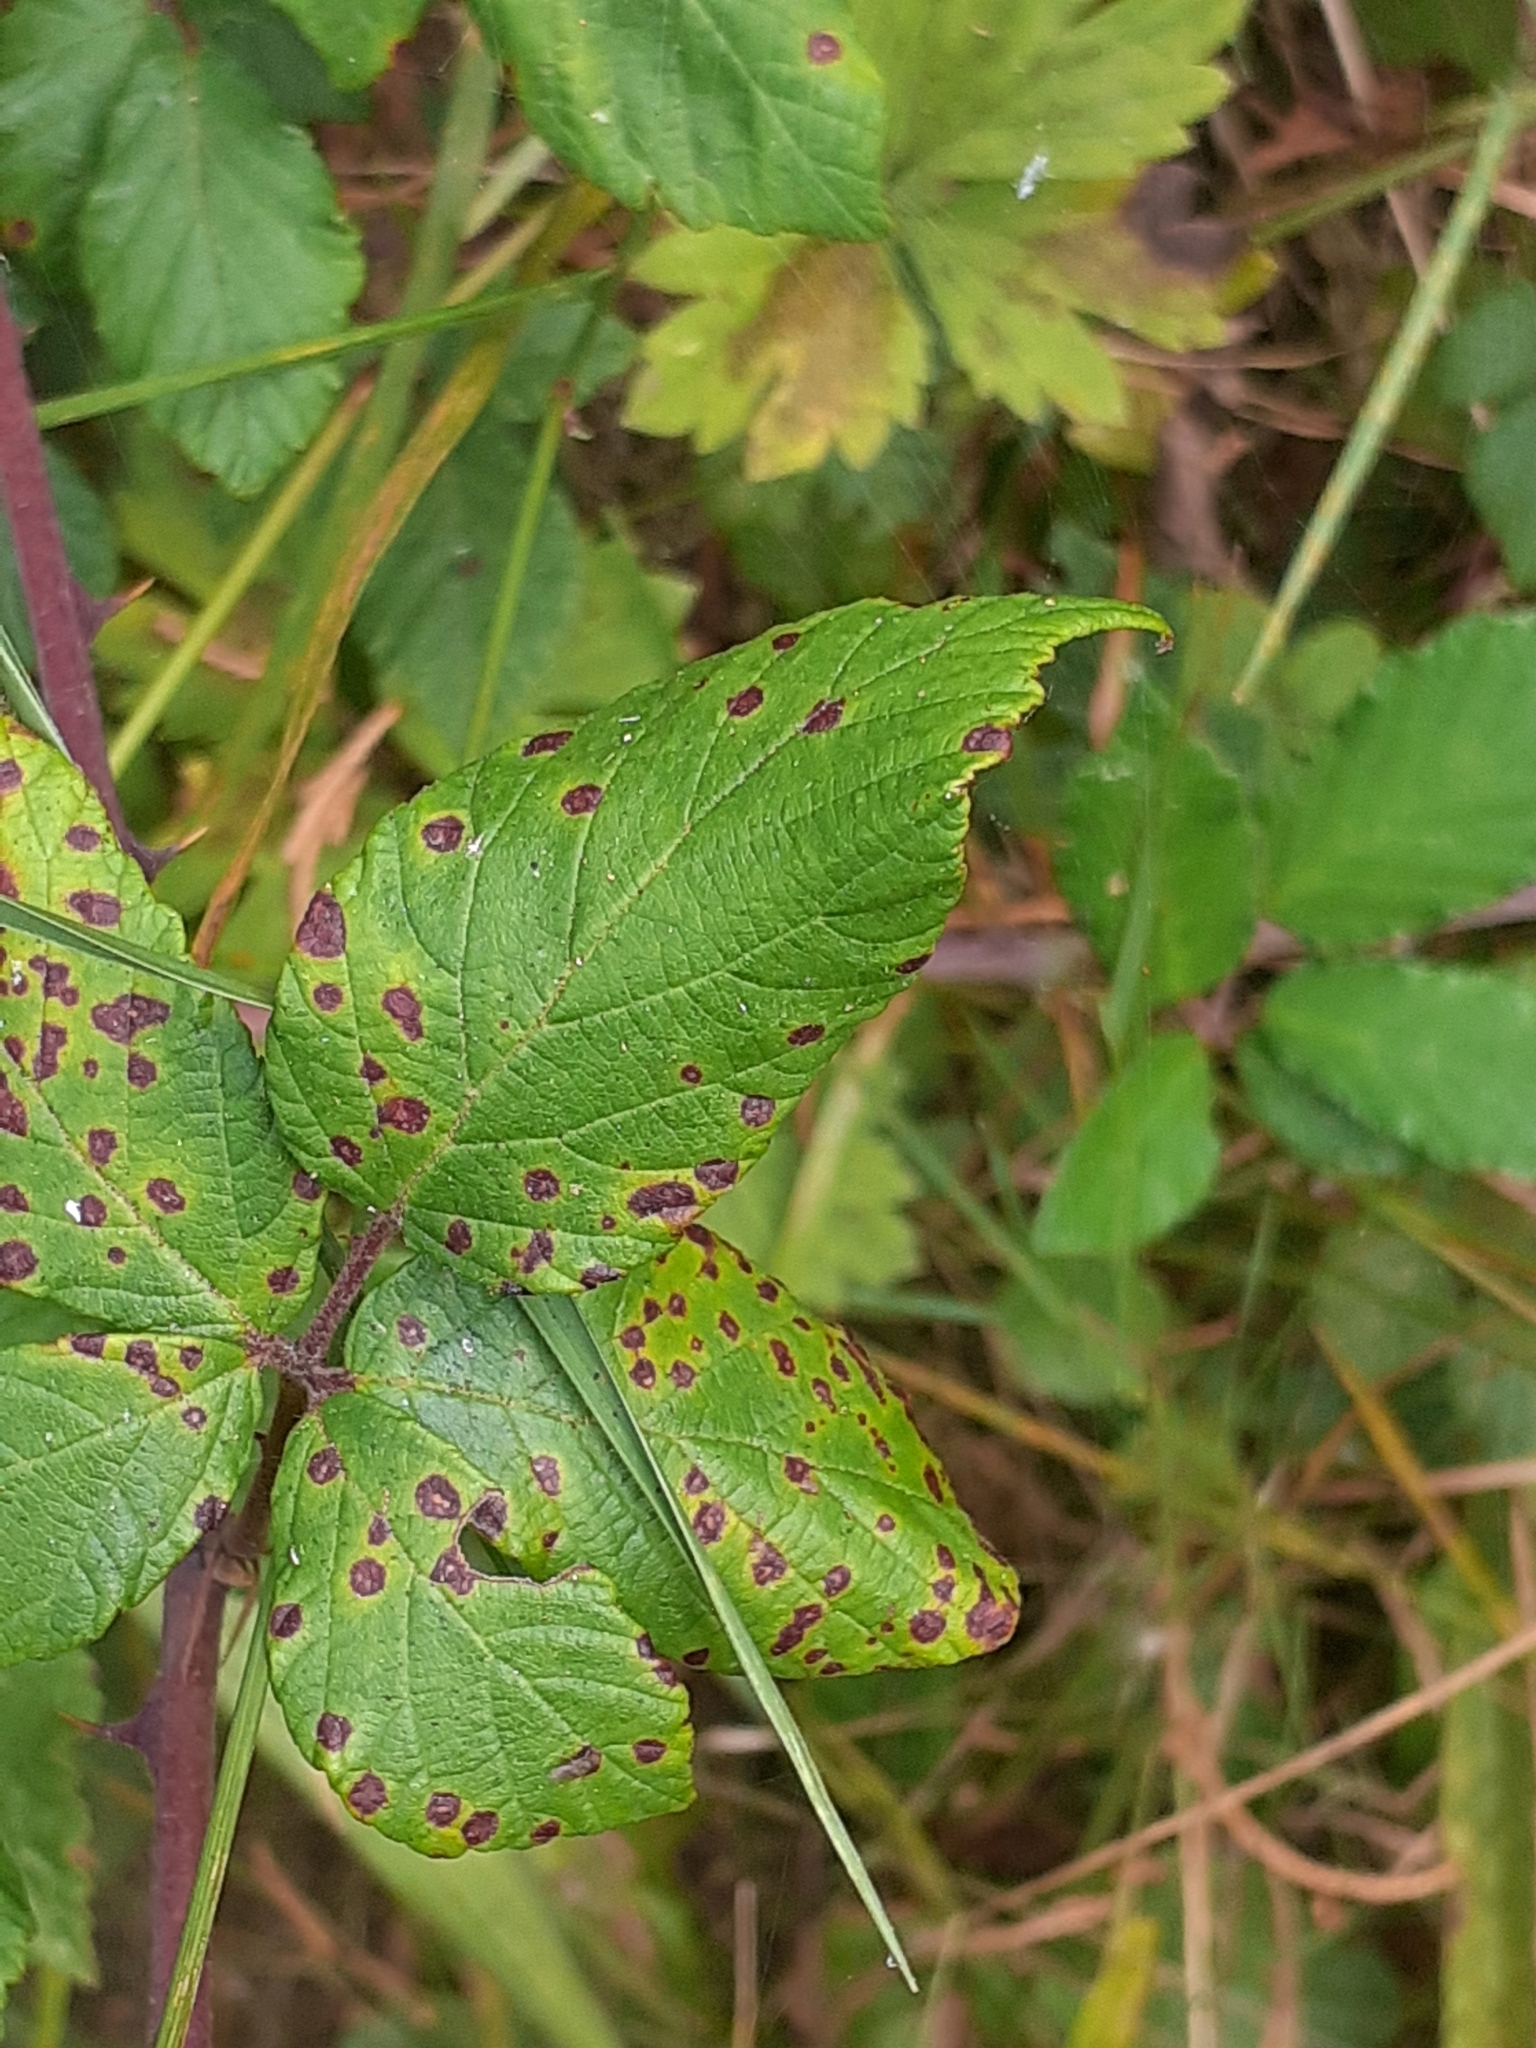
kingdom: Fungi
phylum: Basidiomycota
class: Pucciniomycetes
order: Pucciniales
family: Phragmidiaceae
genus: Phragmidium
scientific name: Phragmidium violaceum
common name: Violet bramble rust
